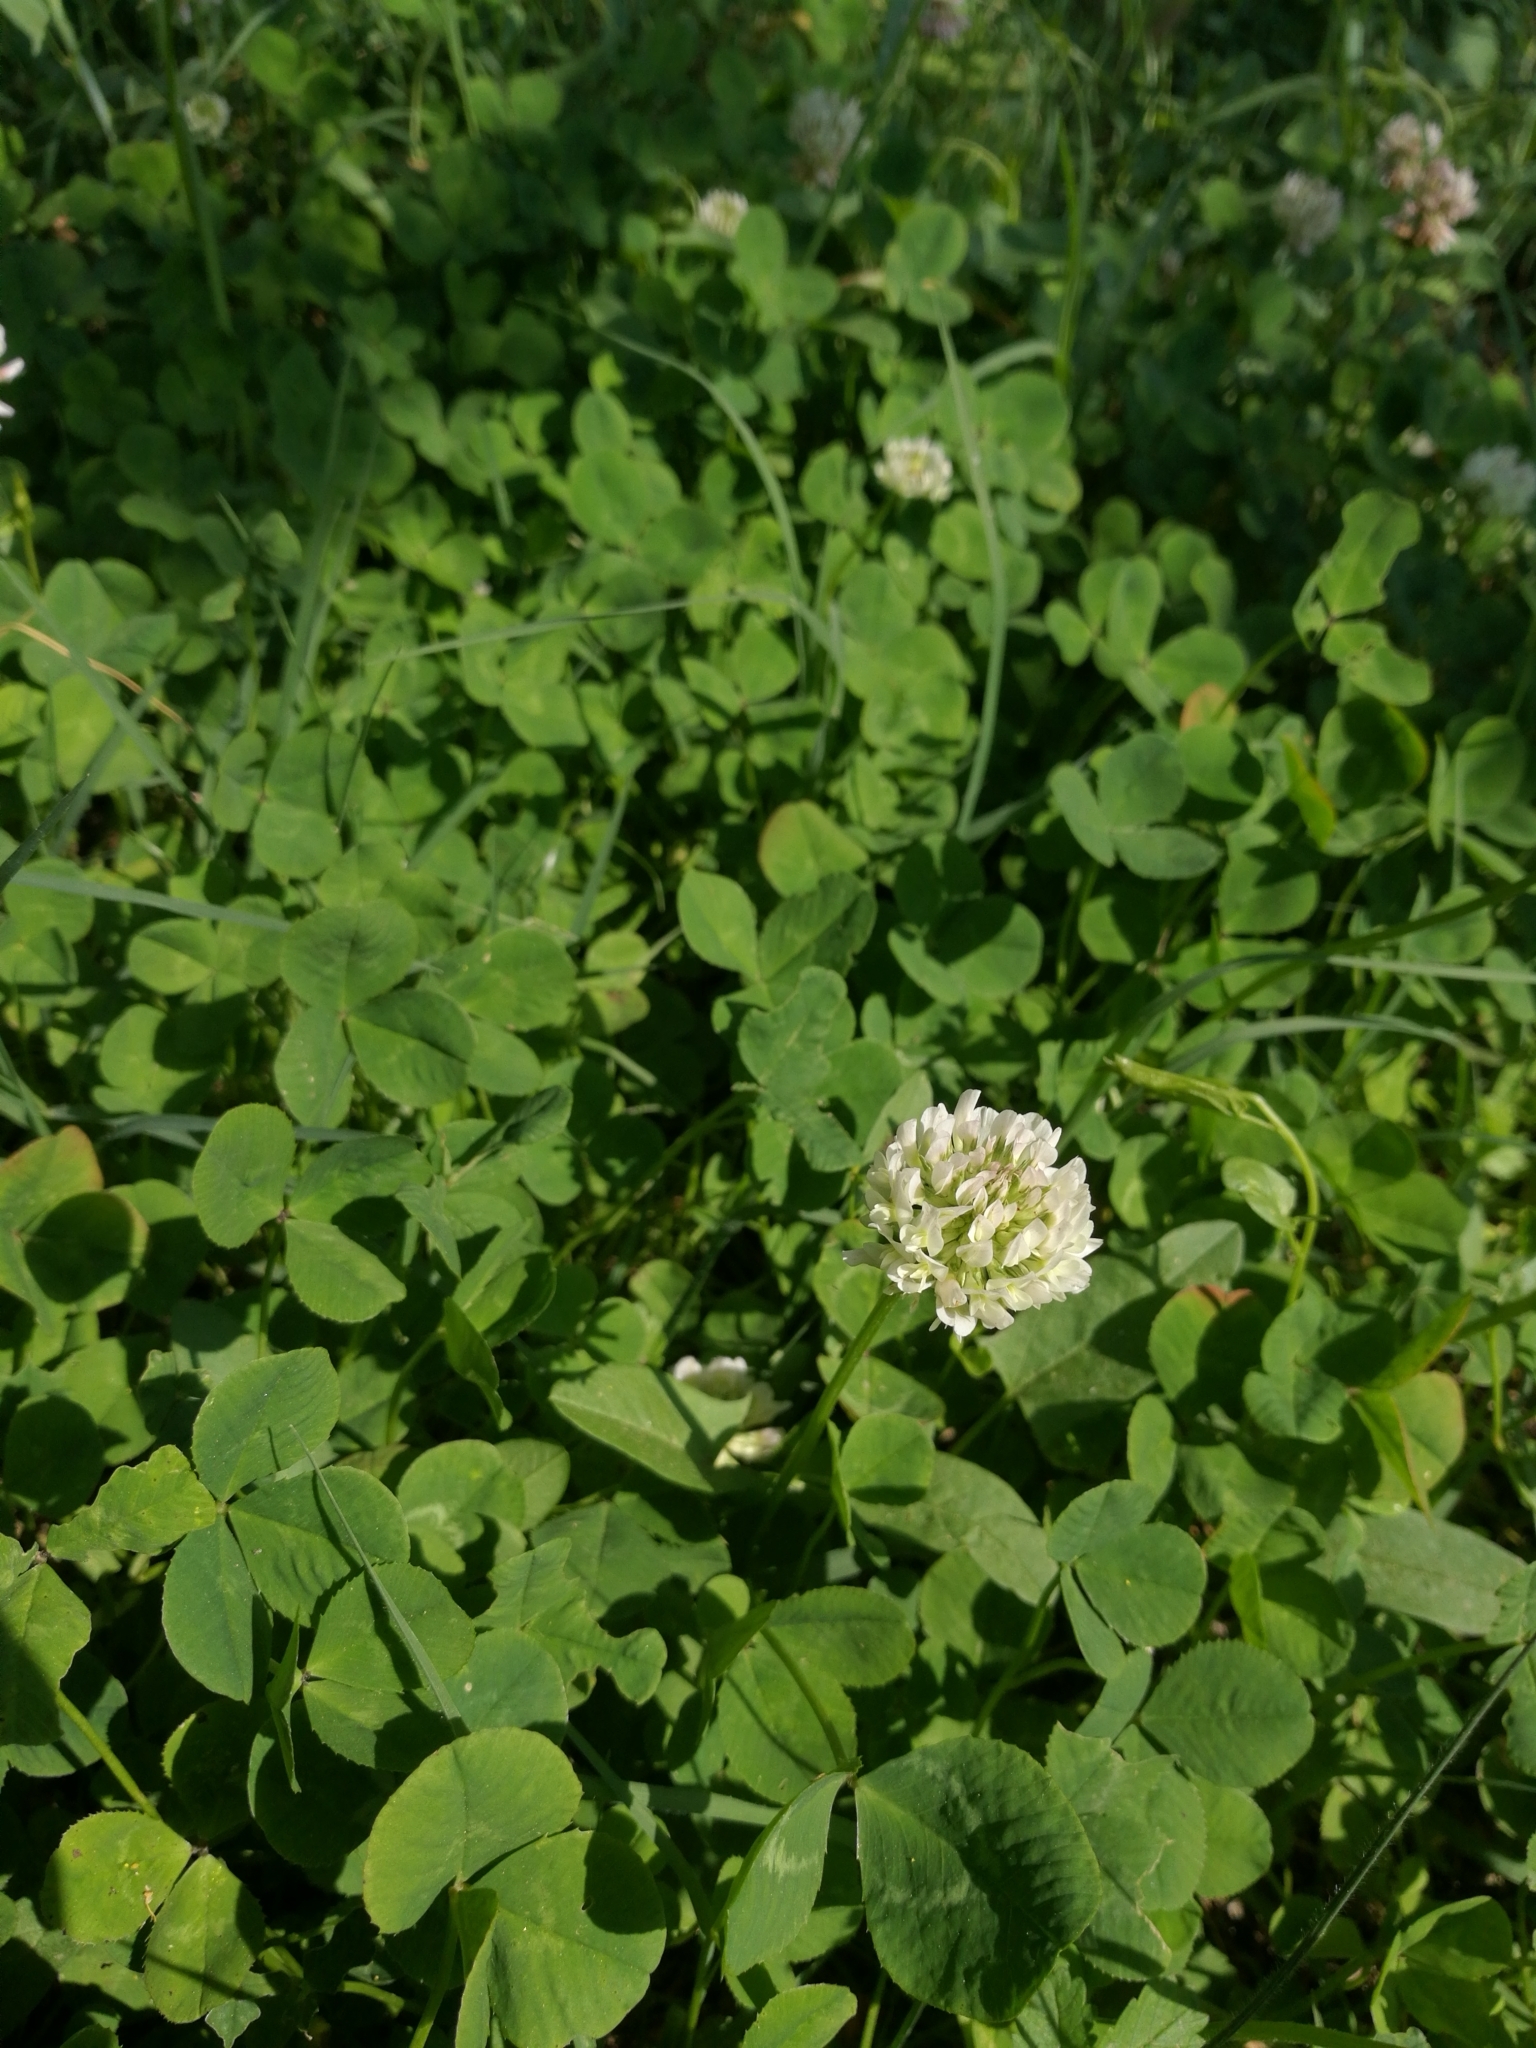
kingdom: Plantae
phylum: Tracheophyta
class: Magnoliopsida
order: Fabales
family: Fabaceae
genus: Trifolium
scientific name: Trifolium repens
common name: White clover
